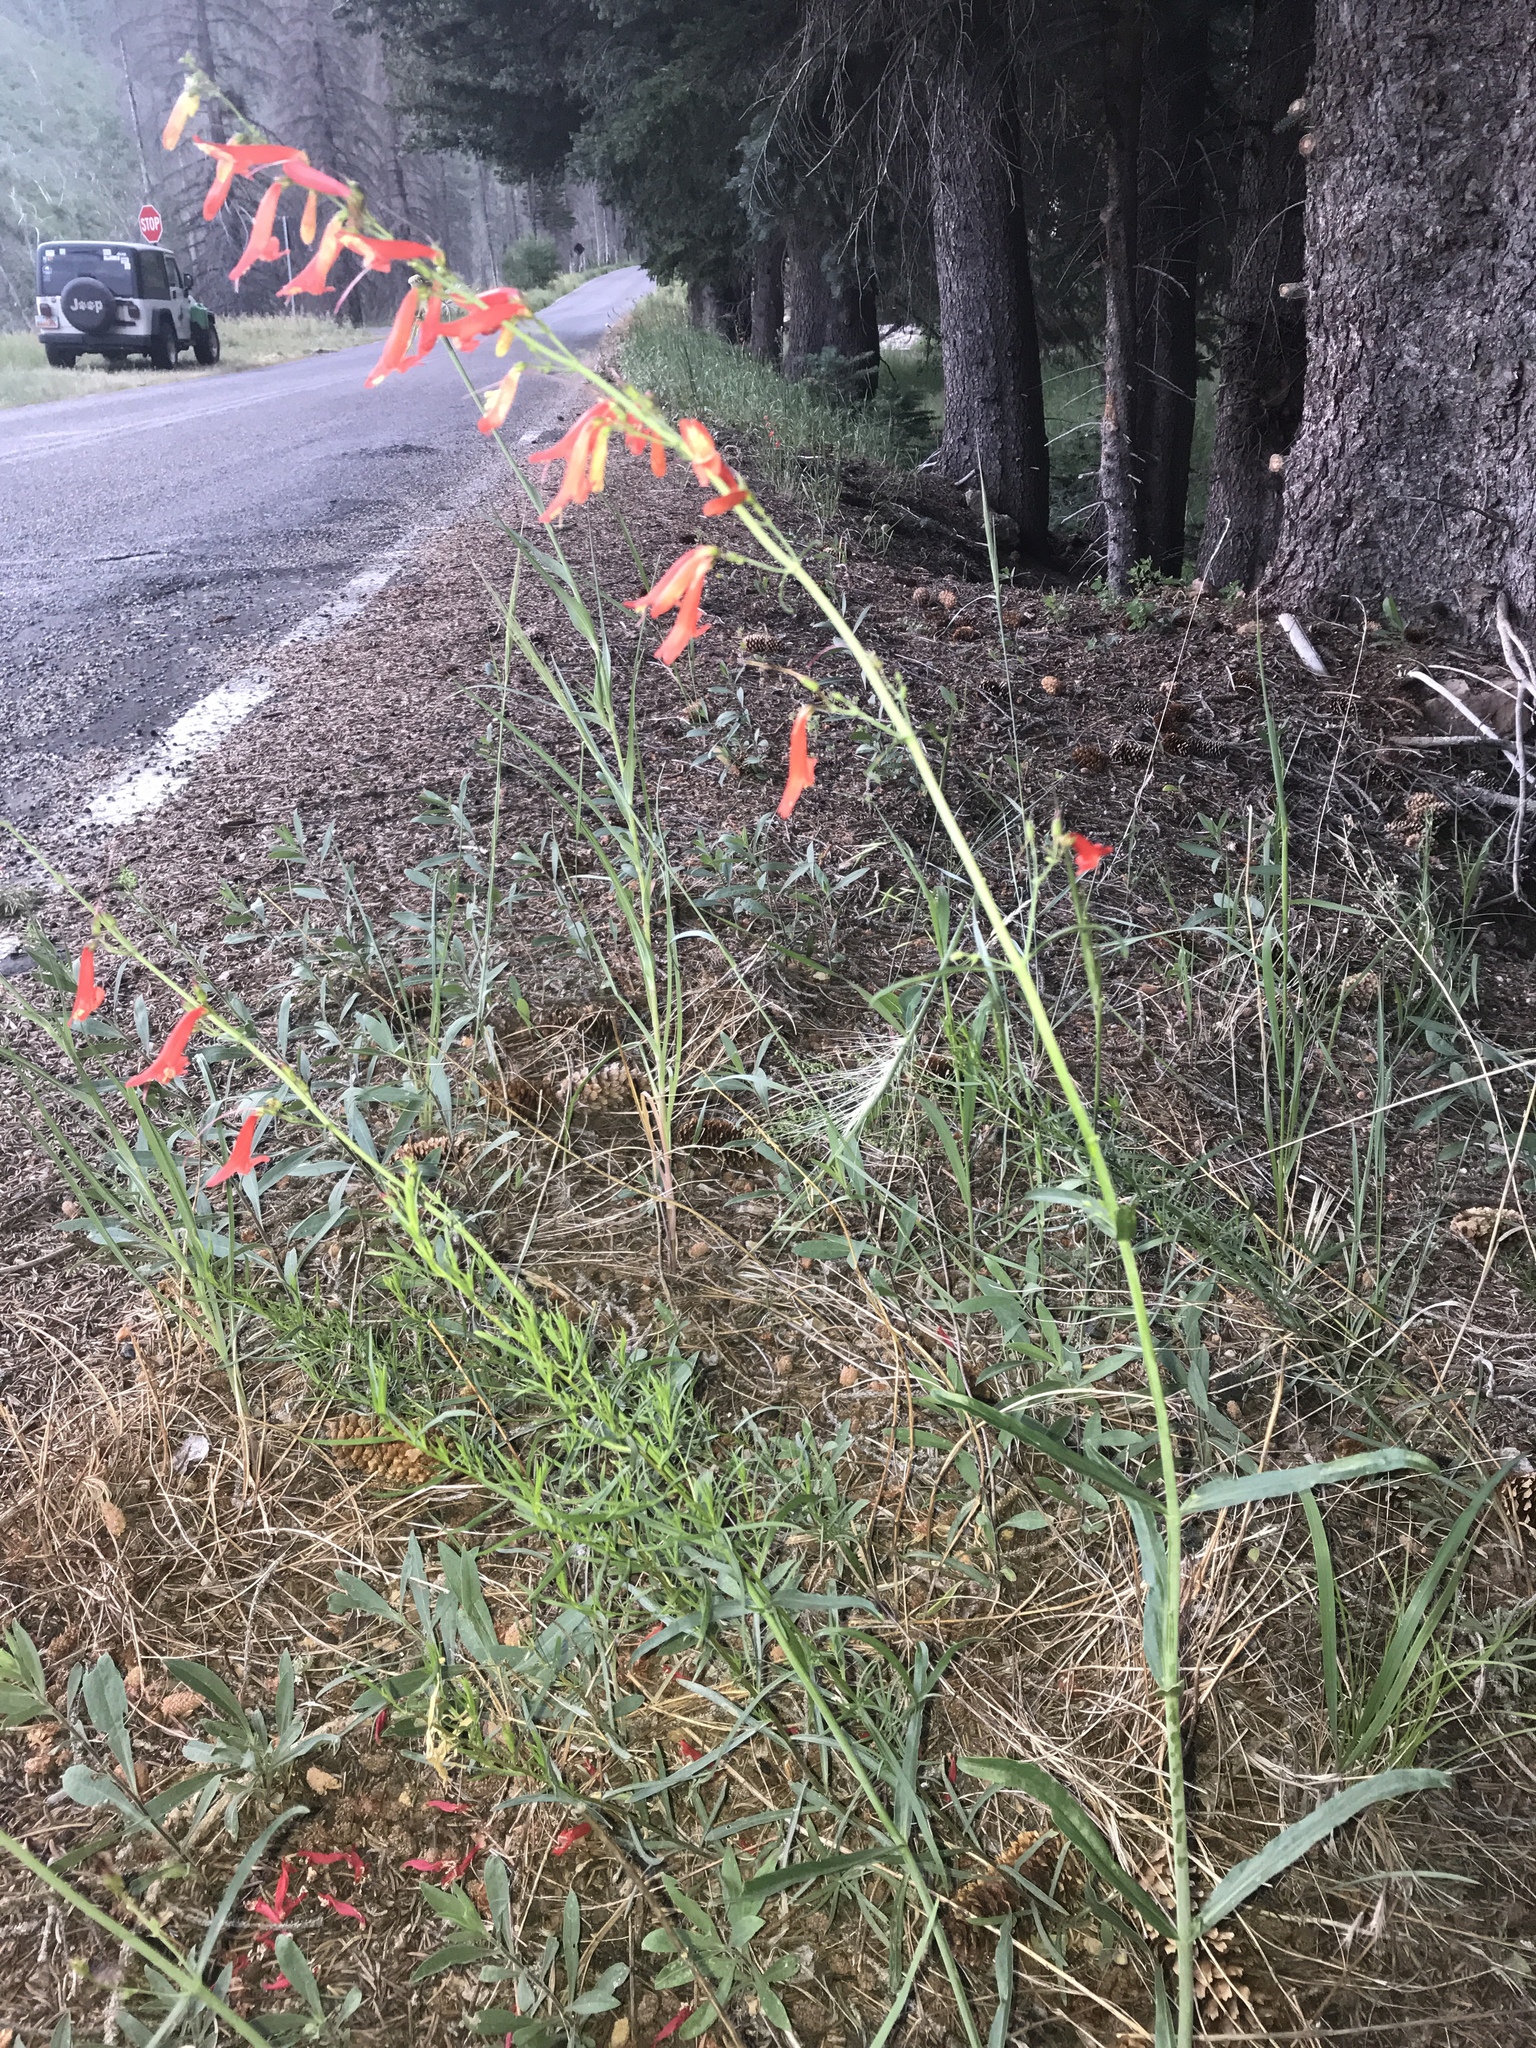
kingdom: Plantae
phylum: Tracheophyta
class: Magnoliopsida
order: Lamiales
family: Plantaginaceae
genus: Penstemon
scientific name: Penstemon barbatus
